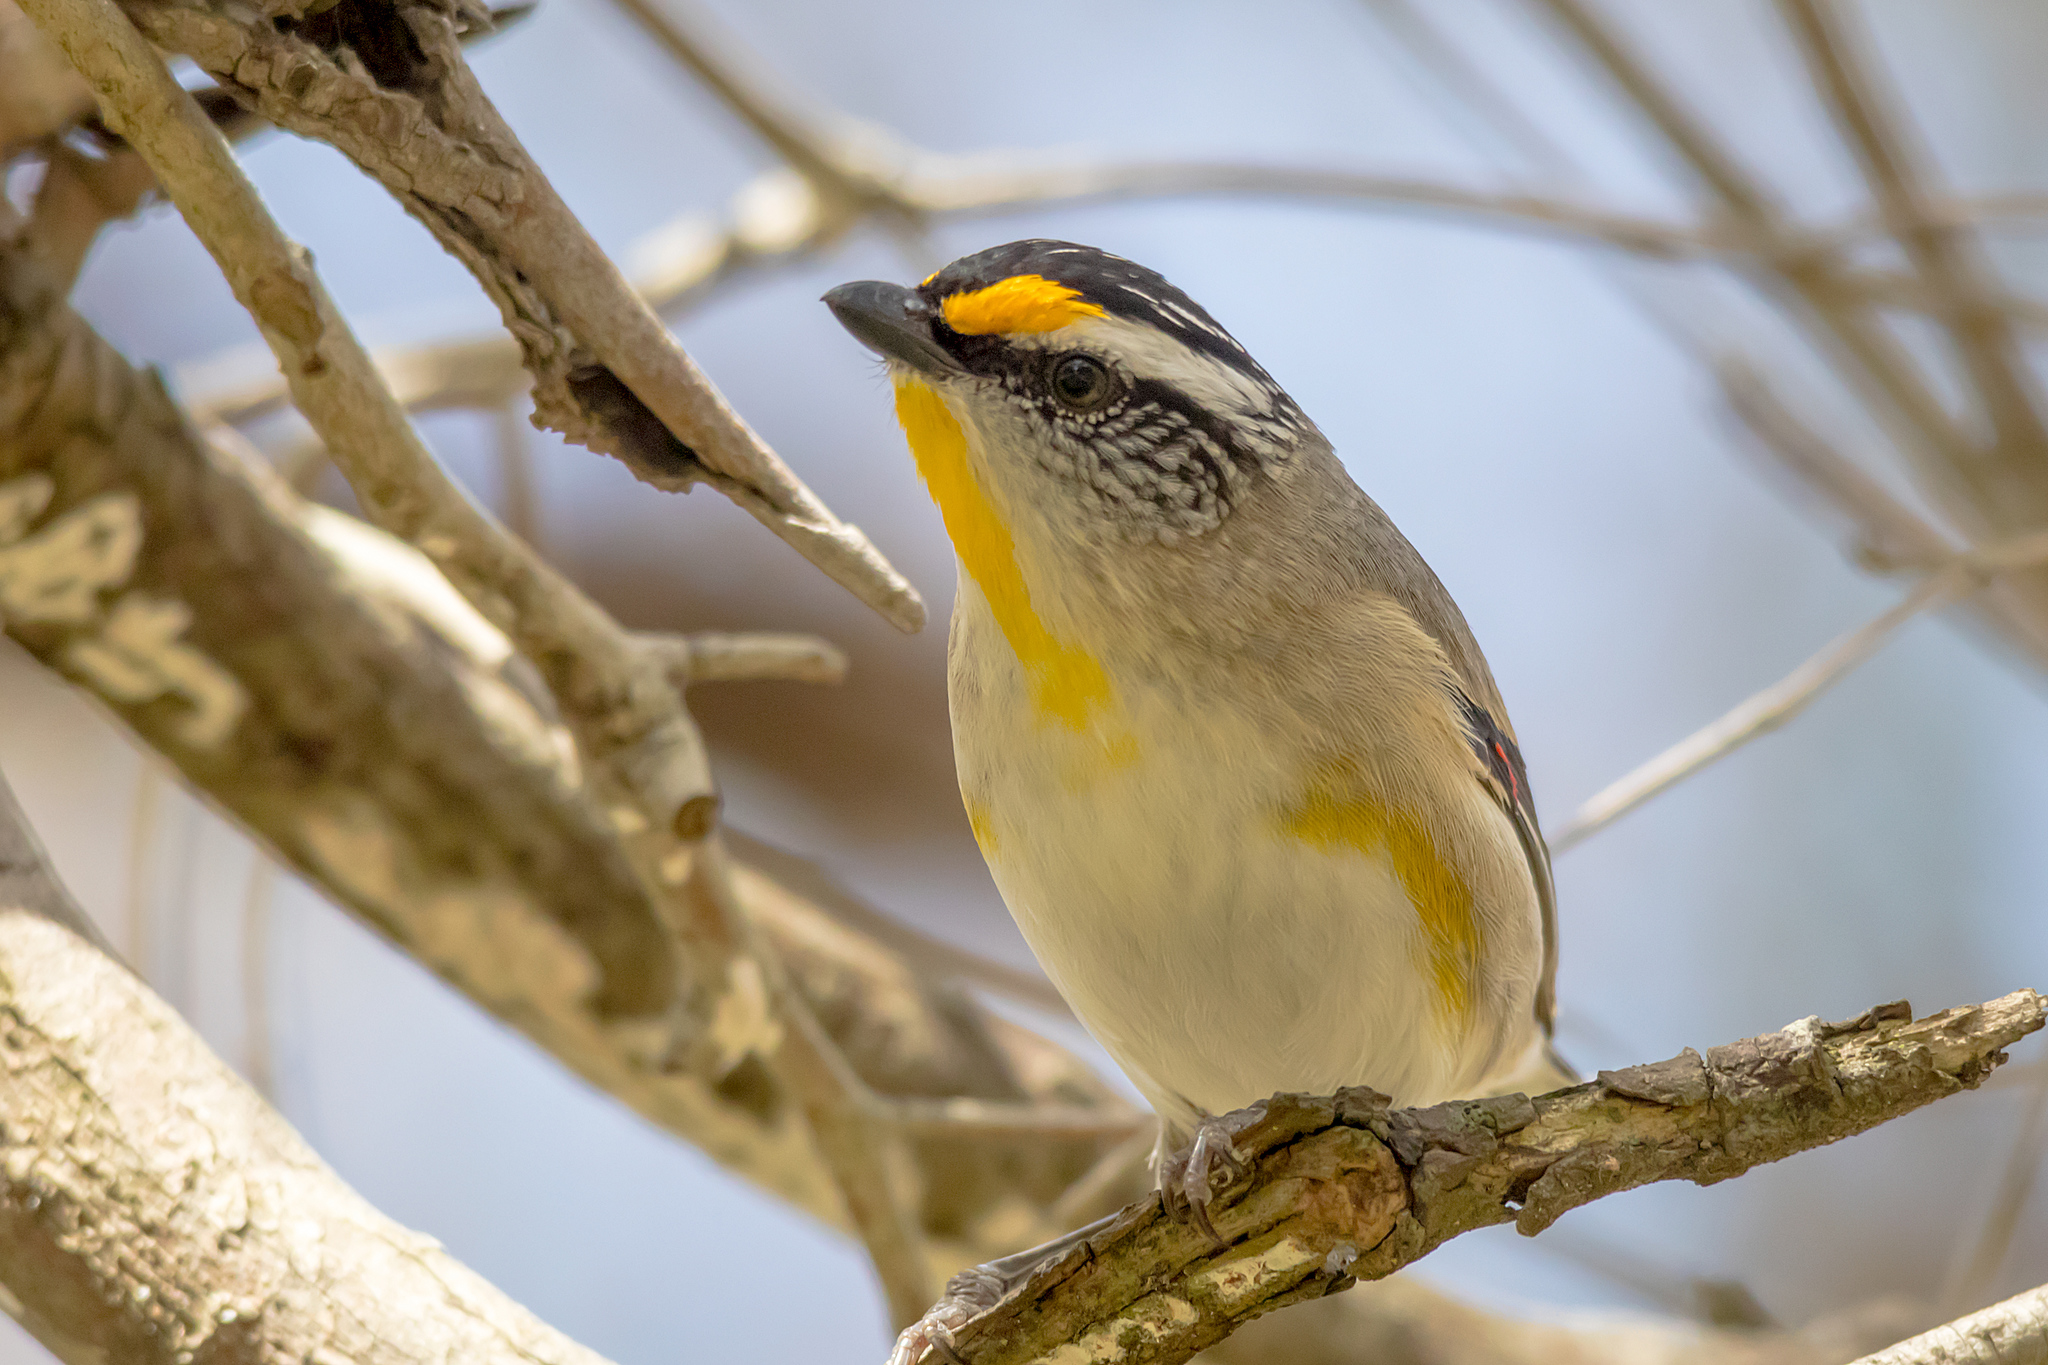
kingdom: Animalia
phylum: Chordata
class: Aves
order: Passeriformes
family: Pardalotidae
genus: Pardalotus
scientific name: Pardalotus striatus
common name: Striated pardalote
